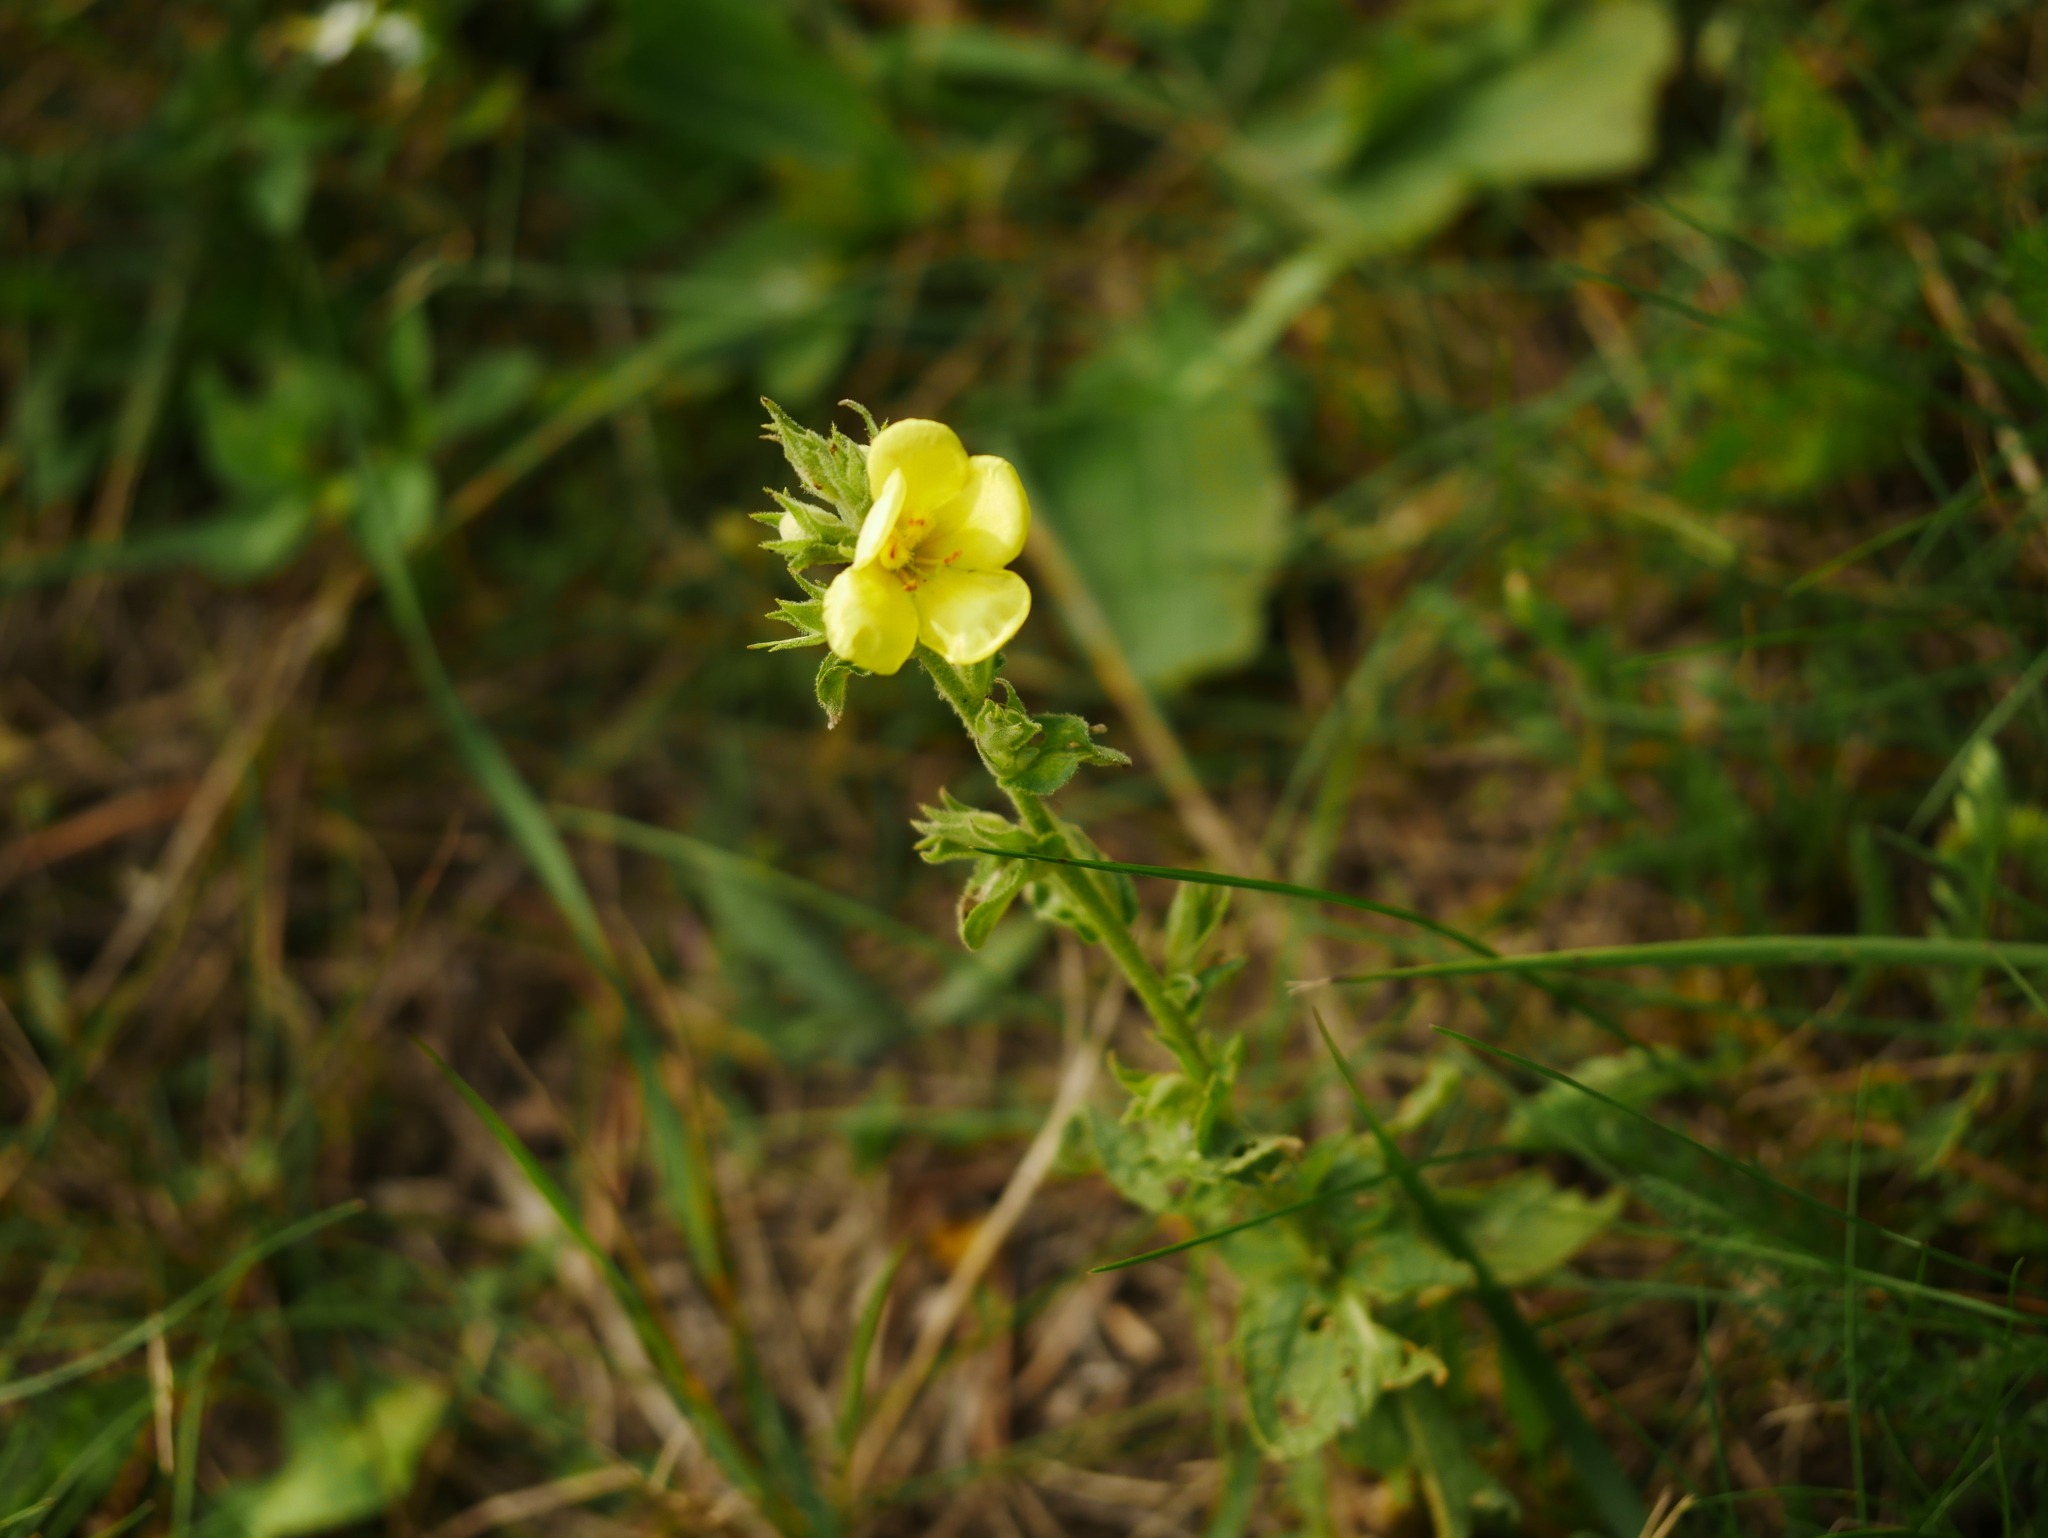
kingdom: Plantae
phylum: Tracheophyta
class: Magnoliopsida
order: Rosales
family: Rosaceae
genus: Potentilla
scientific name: Potentilla recta
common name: Sulphur cinquefoil
